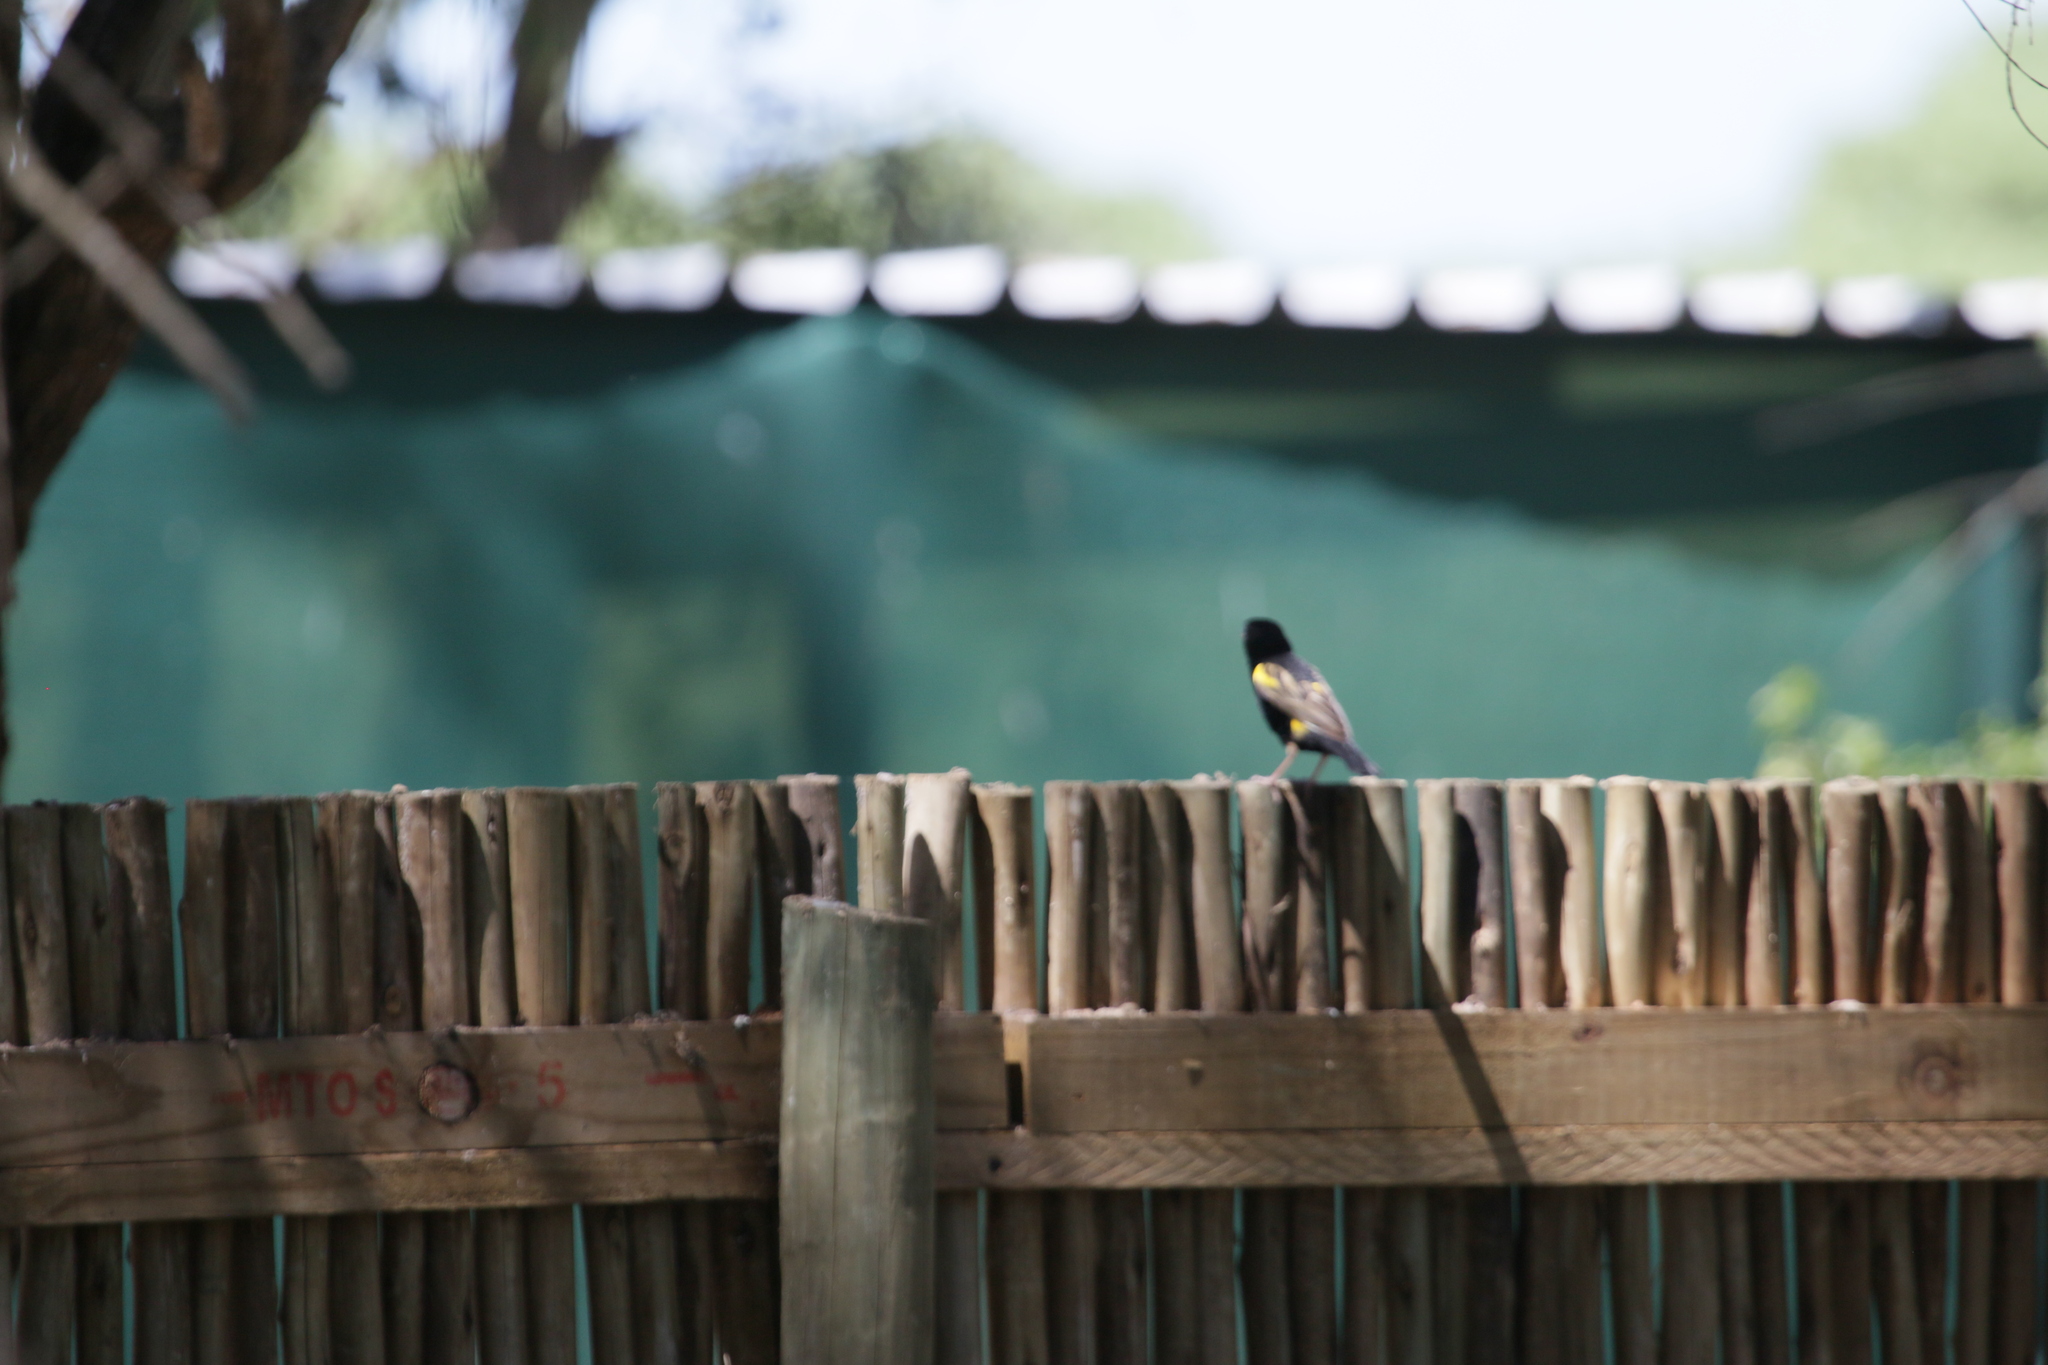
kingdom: Animalia
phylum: Chordata
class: Aves
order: Passeriformes
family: Ploceidae
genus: Euplectes
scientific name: Euplectes capensis
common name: Yellow bishop
